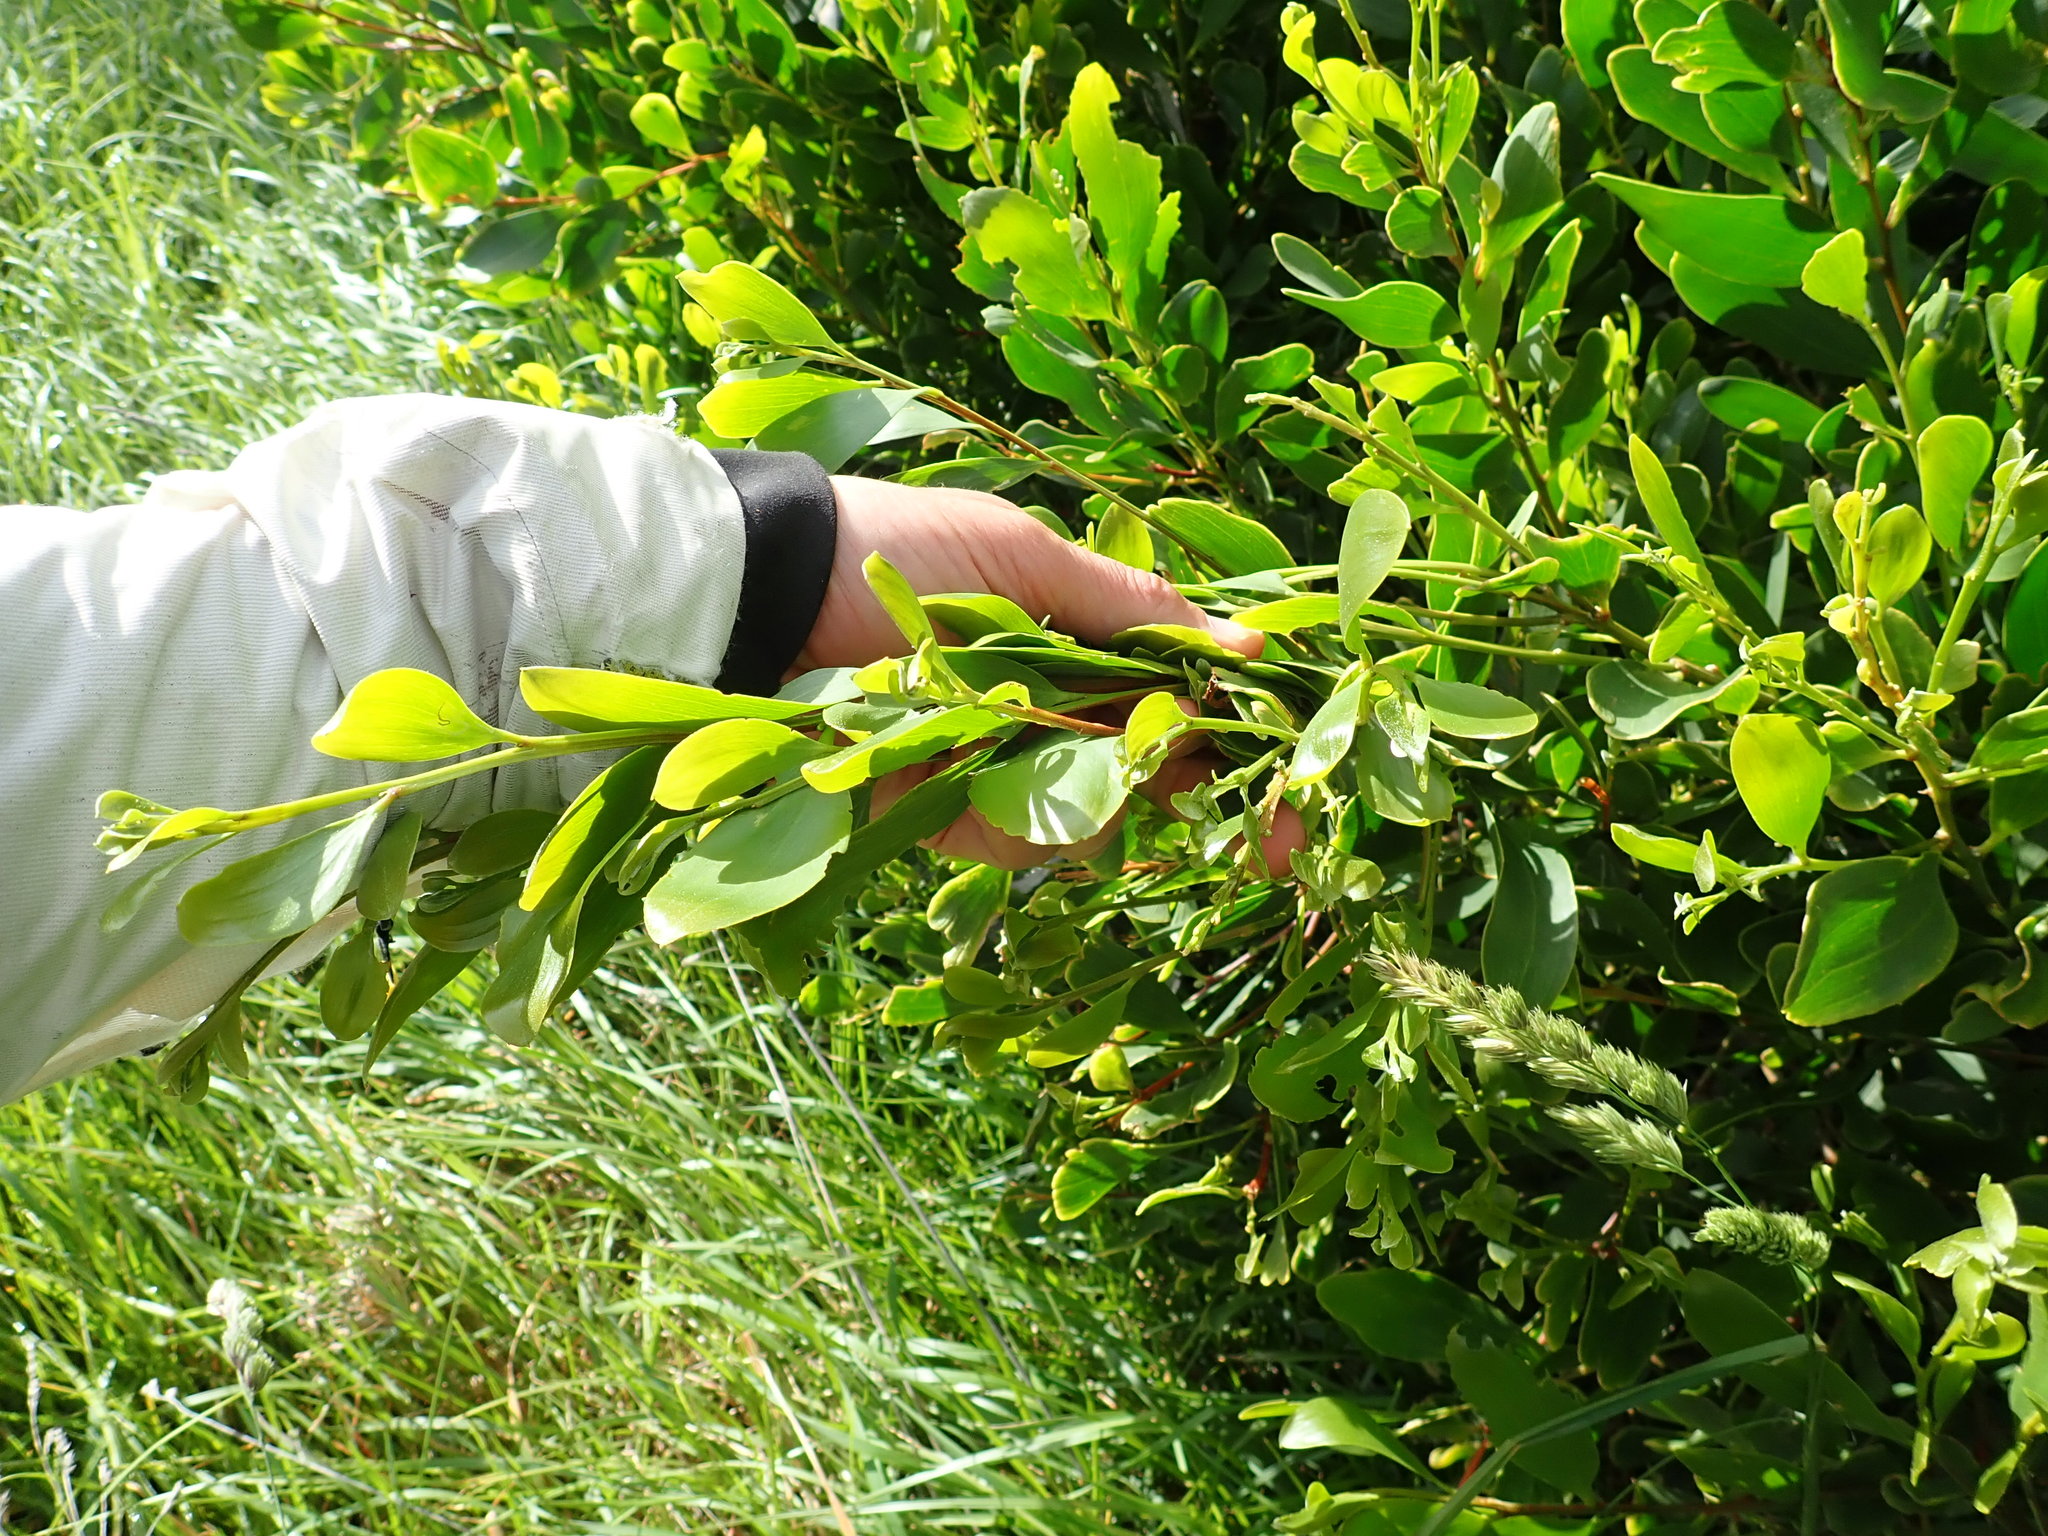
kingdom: Plantae
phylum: Tracheophyta
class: Magnoliopsida
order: Fabales
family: Fabaceae
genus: Acacia
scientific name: Acacia longifolia
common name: Sydney golden wattle
